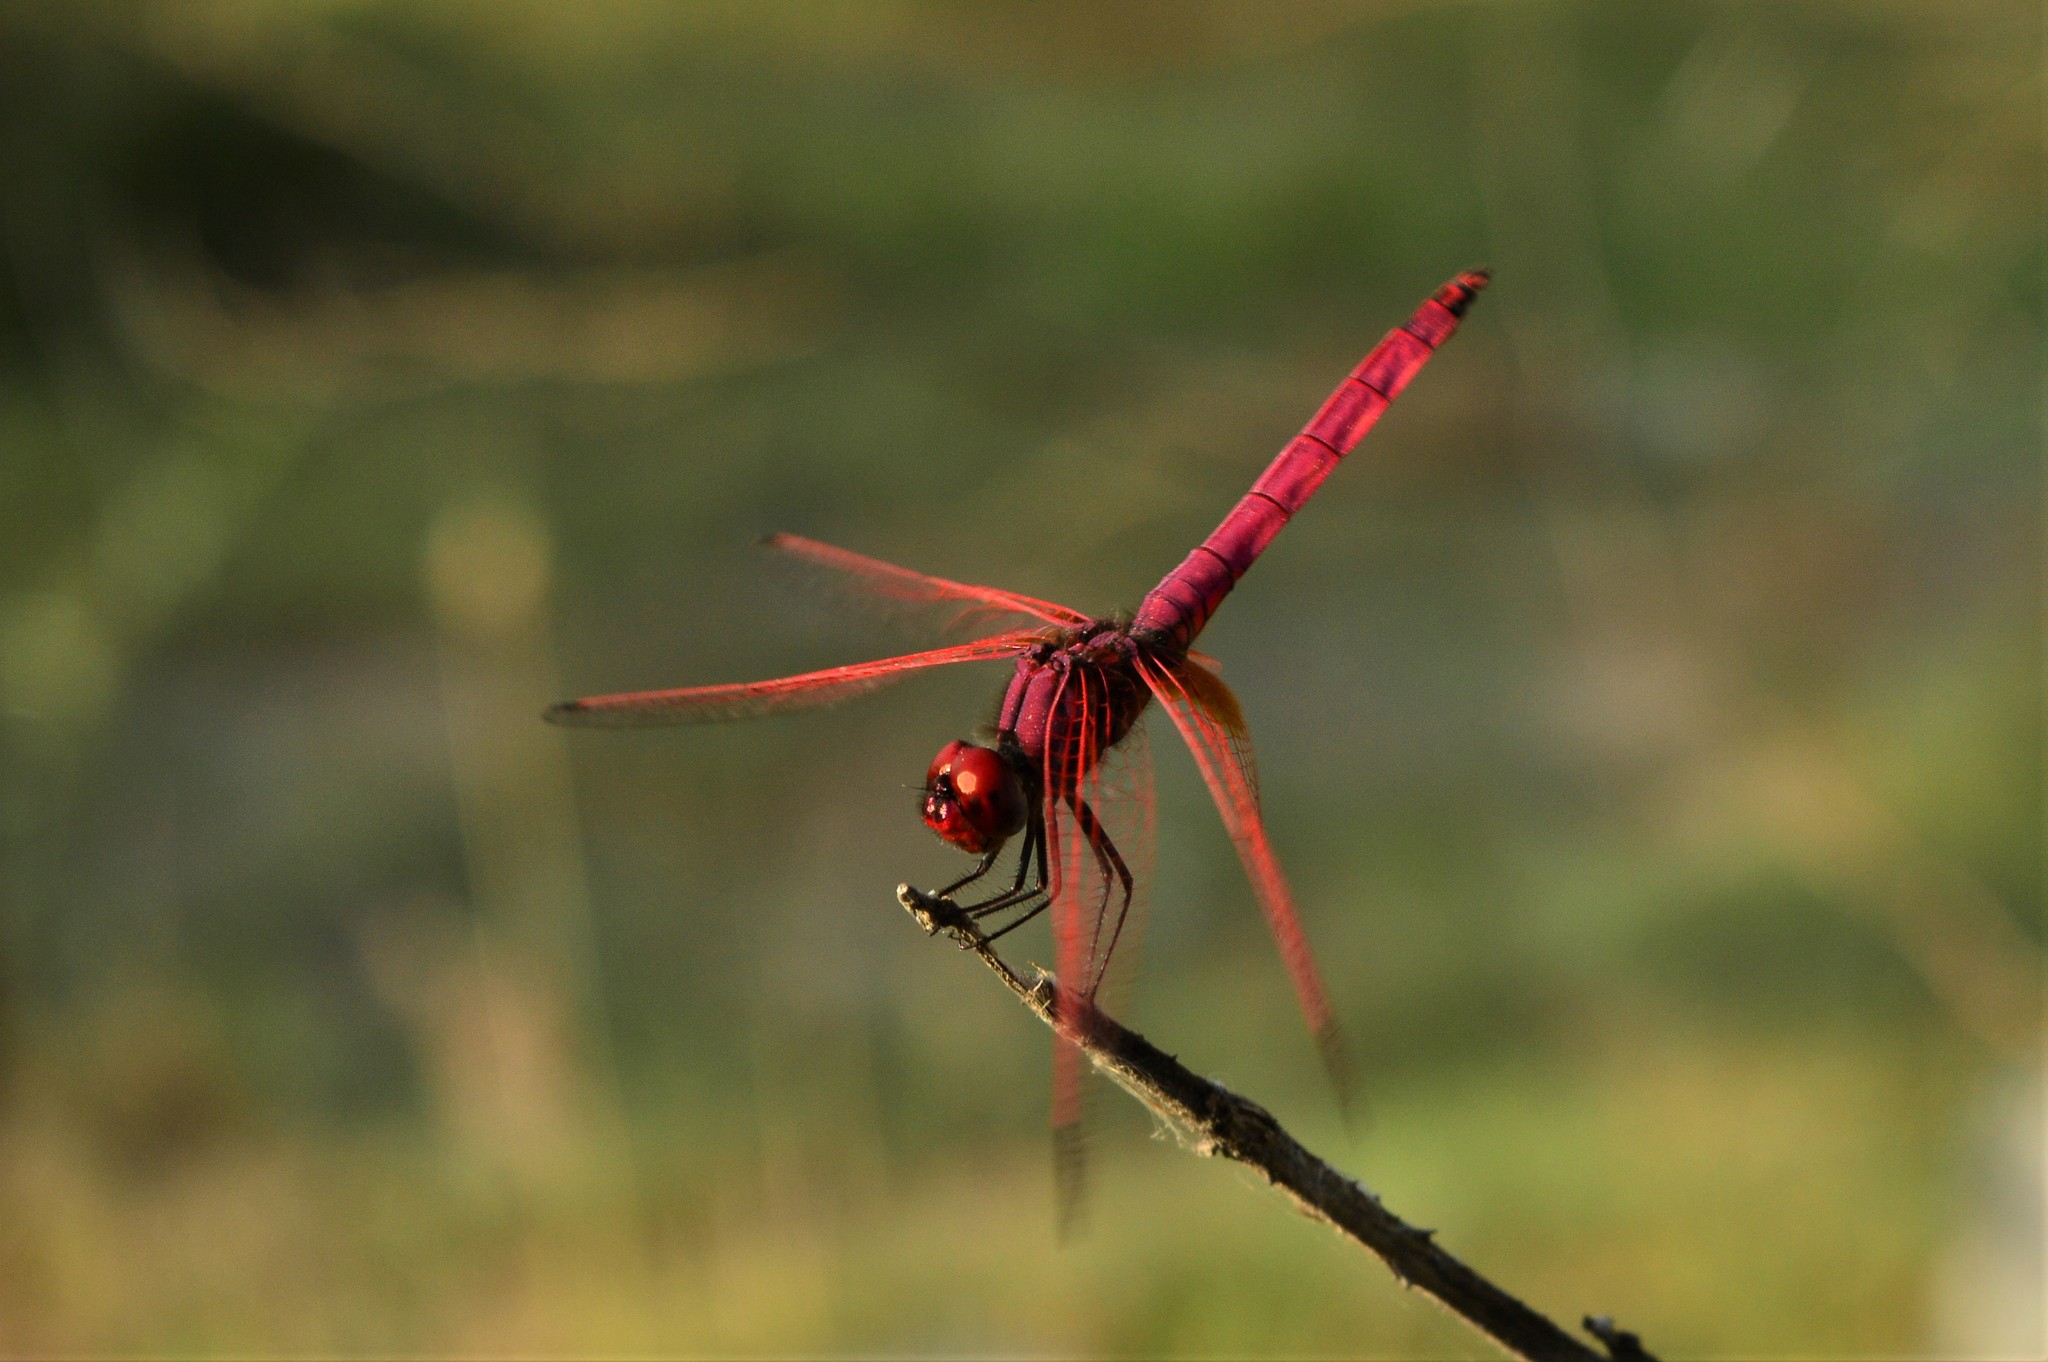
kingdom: Animalia
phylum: Arthropoda
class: Insecta
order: Odonata
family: Libellulidae
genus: Trithemis
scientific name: Trithemis aurora
